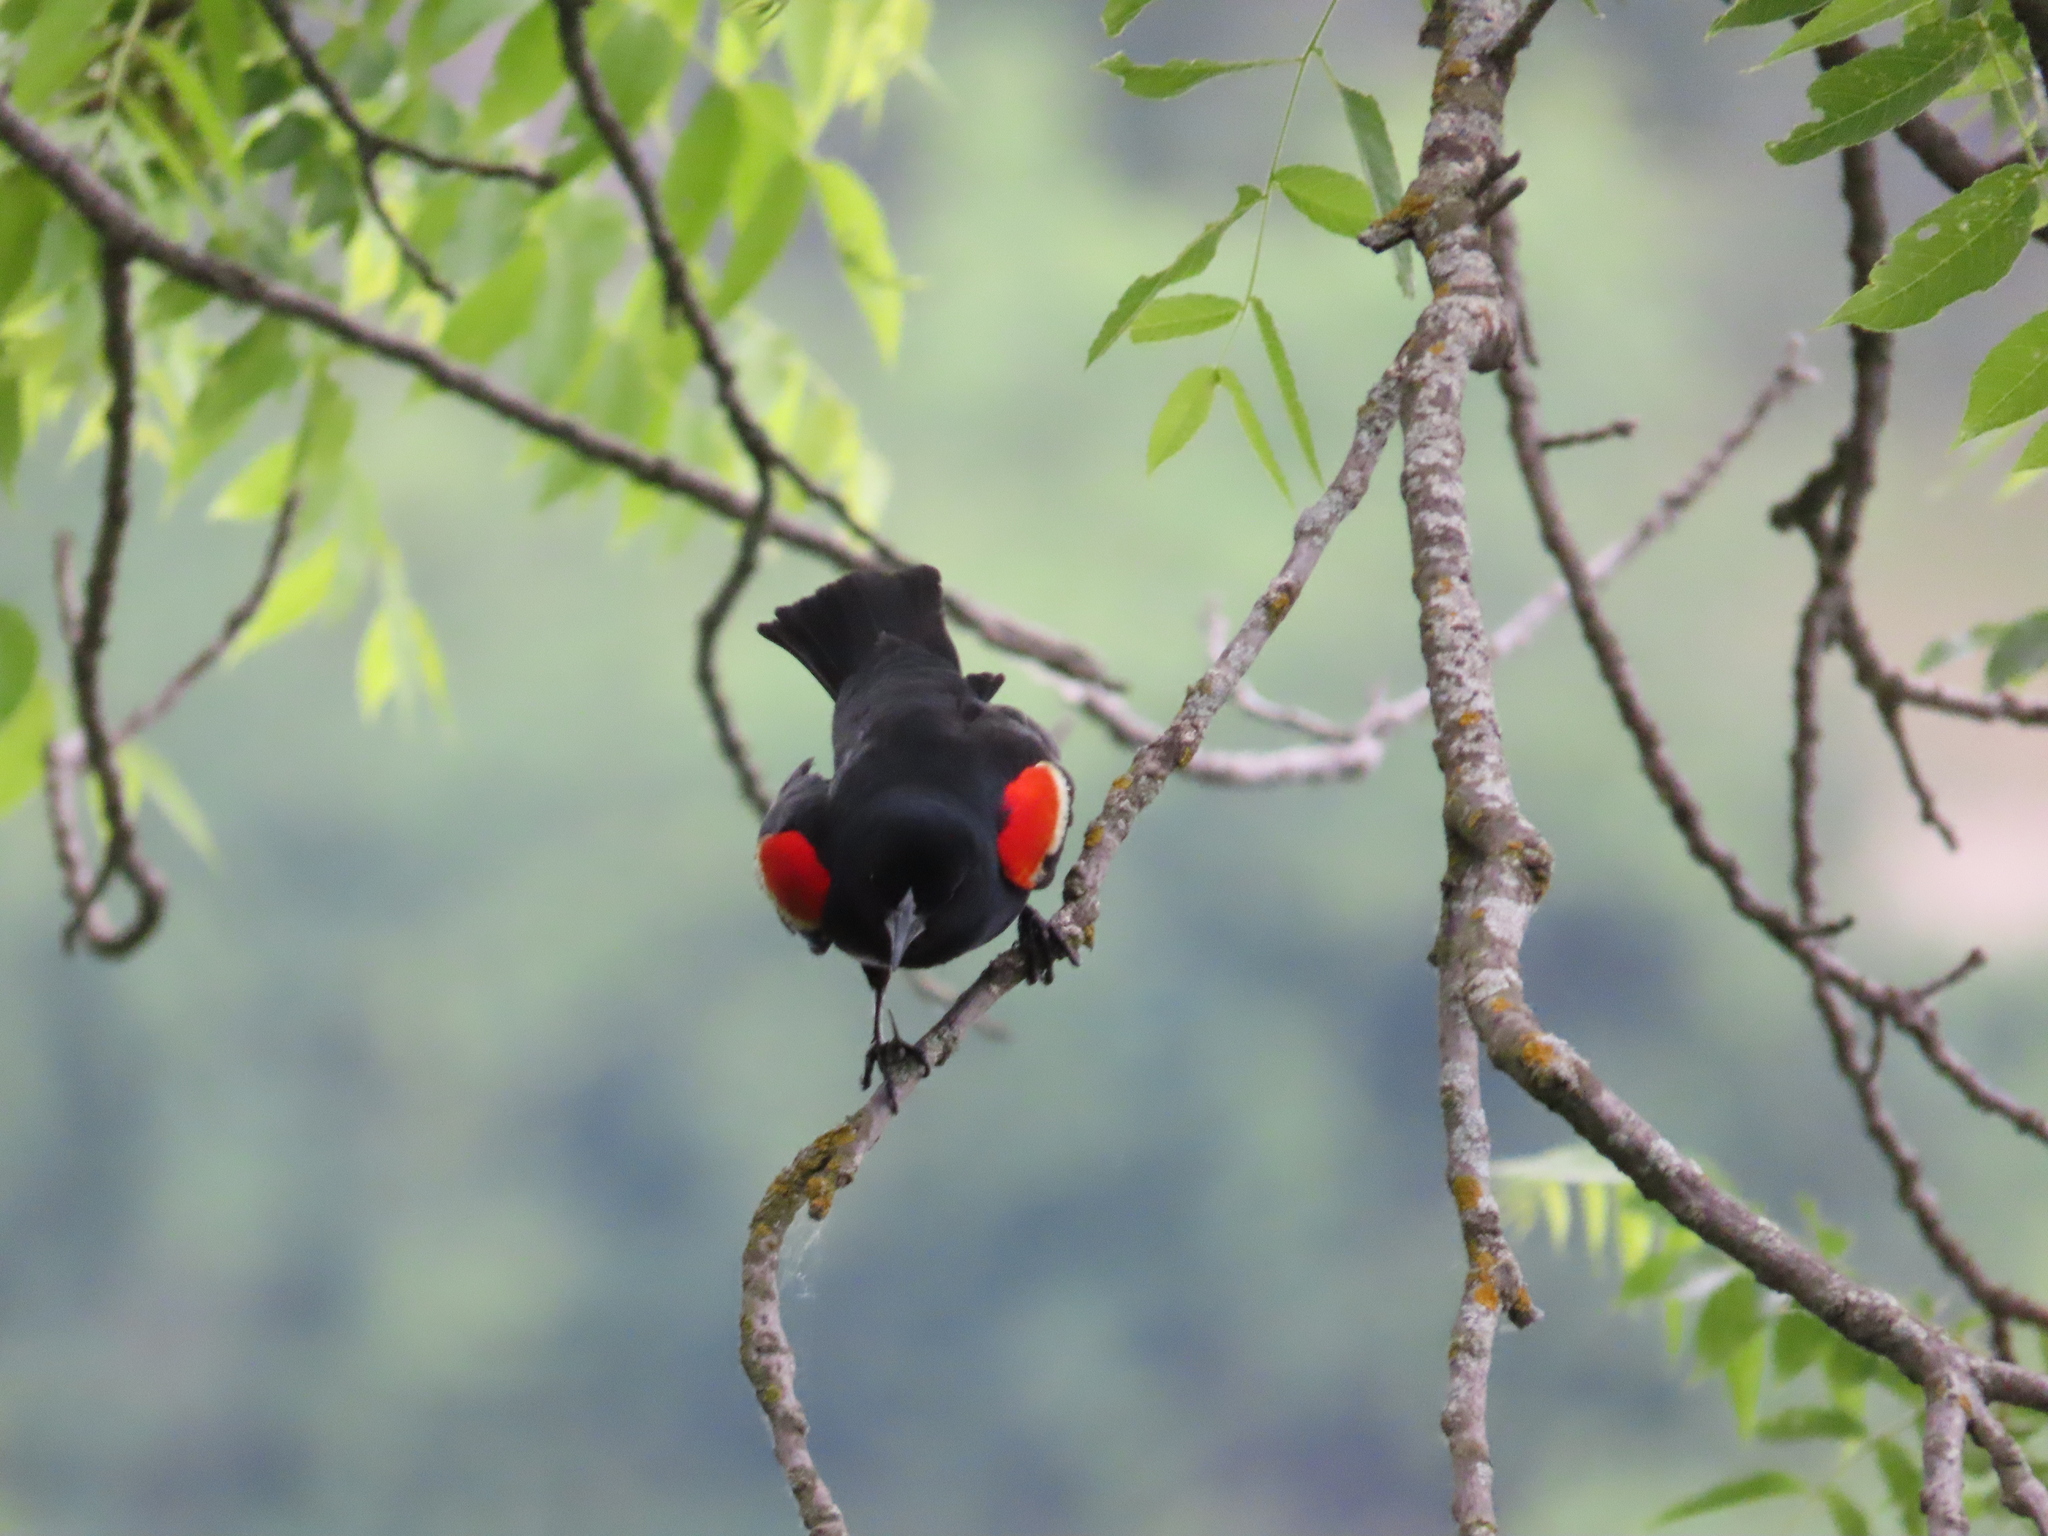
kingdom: Animalia
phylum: Chordata
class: Aves
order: Passeriformes
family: Icteridae
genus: Agelaius
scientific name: Agelaius phoeniceus
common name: Red-winged blackbird
